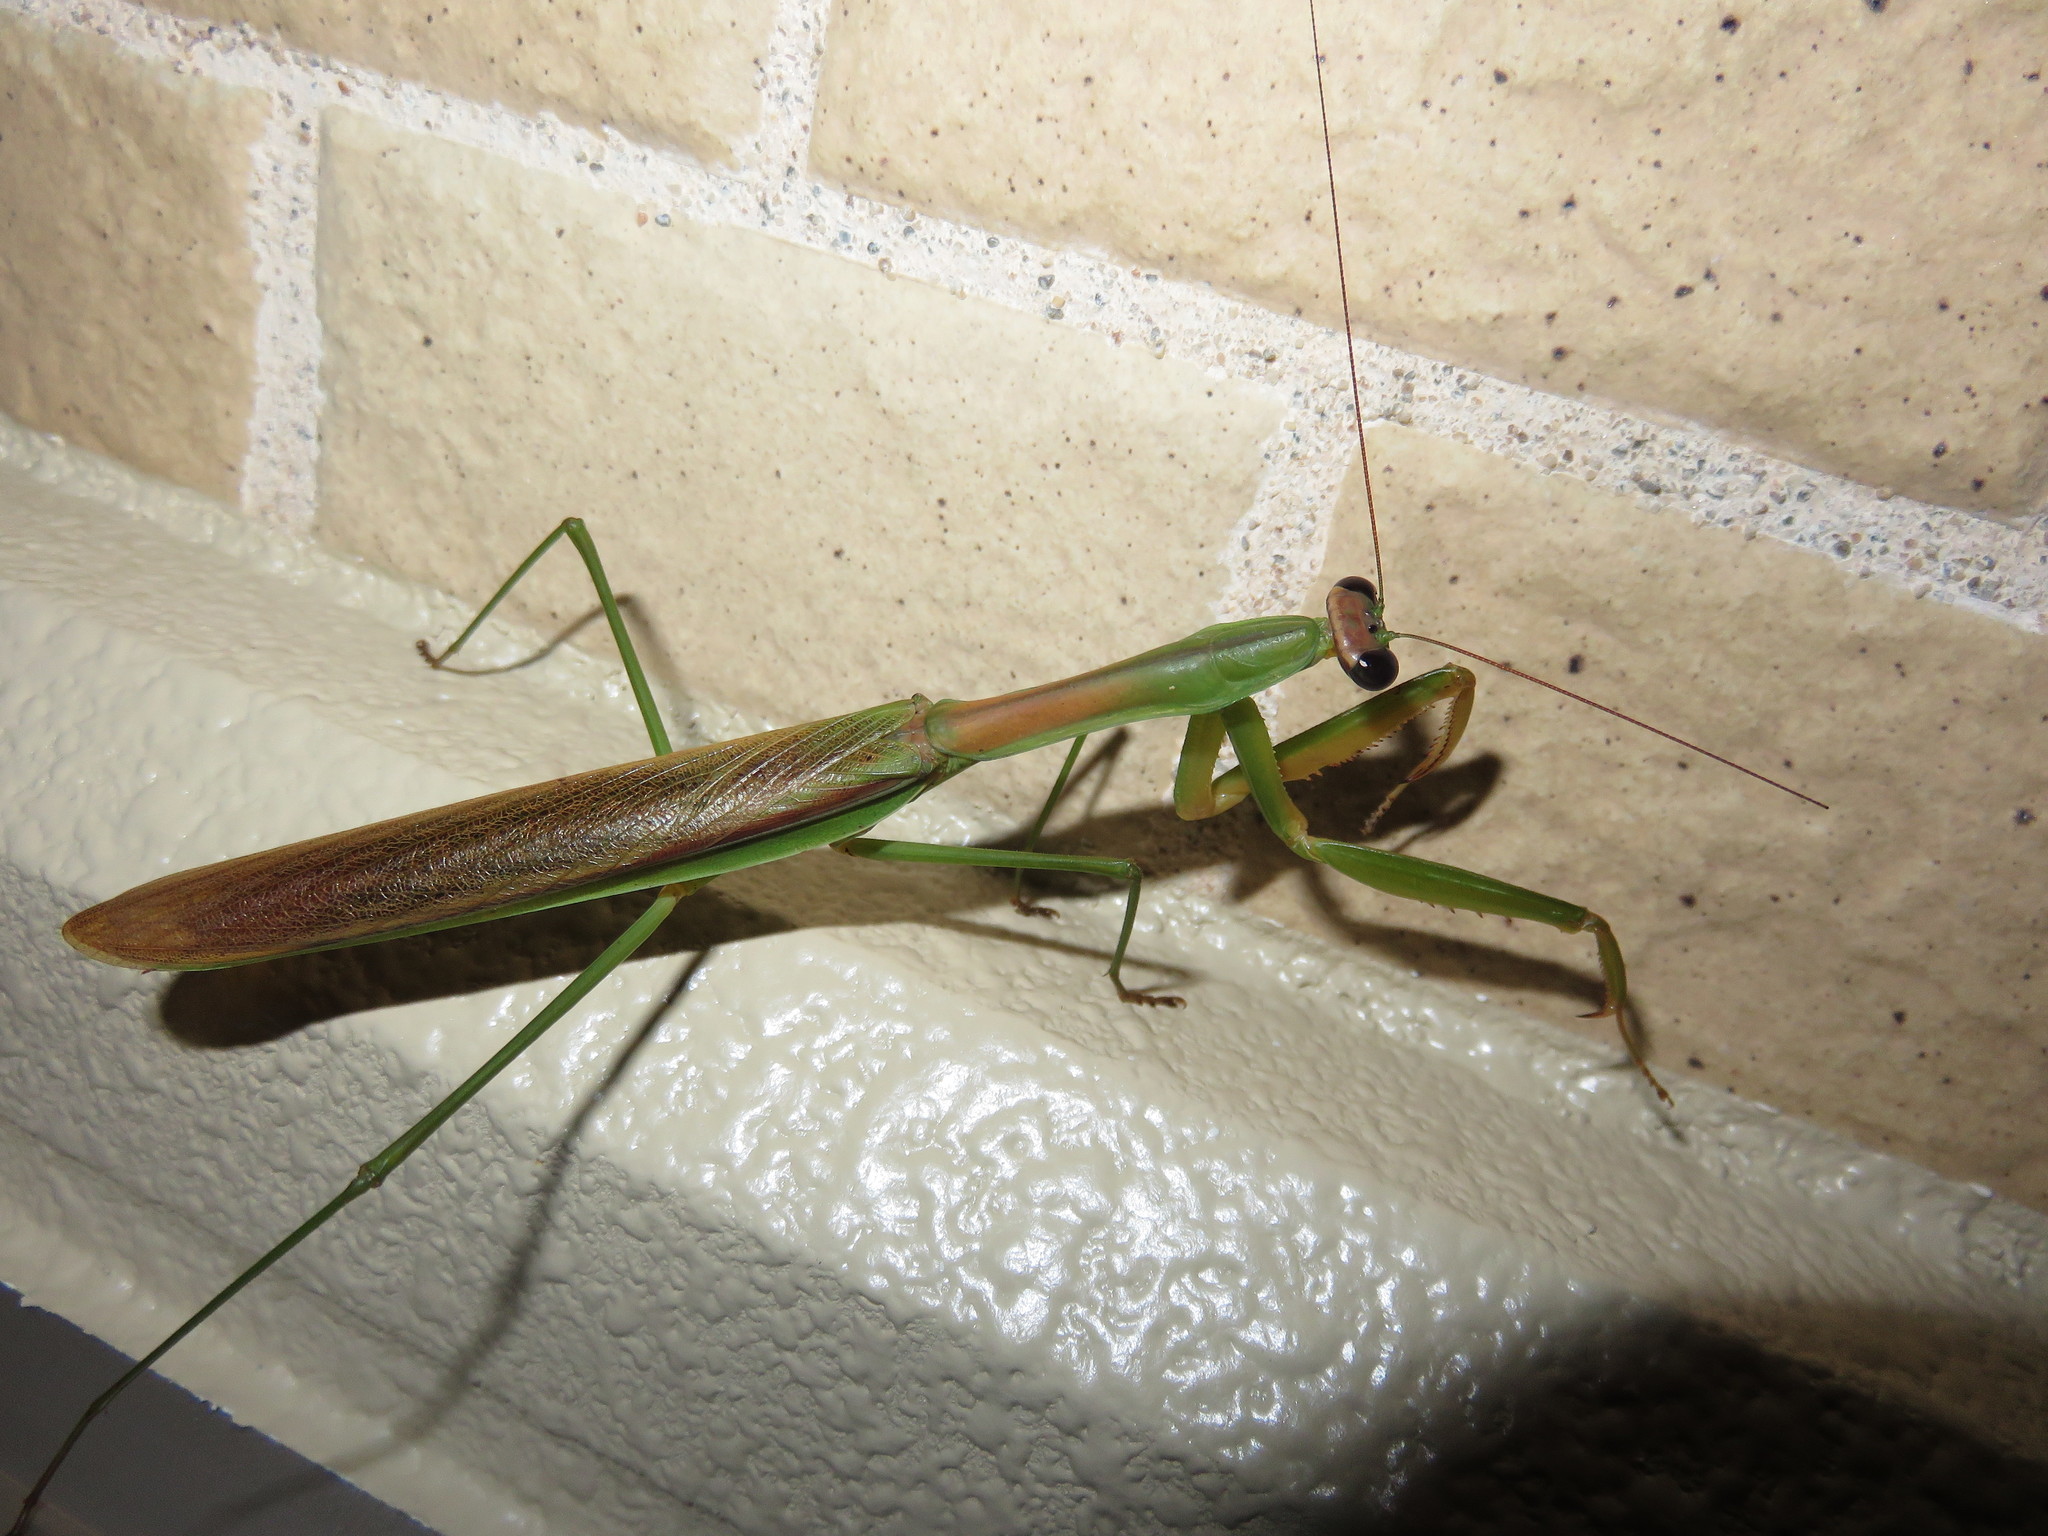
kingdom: Animalia
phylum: Arthropoda
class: Insecta
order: Mantodea
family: Mantidae
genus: Tenodera
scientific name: Tenodera sinensis
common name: Chinese mantis
